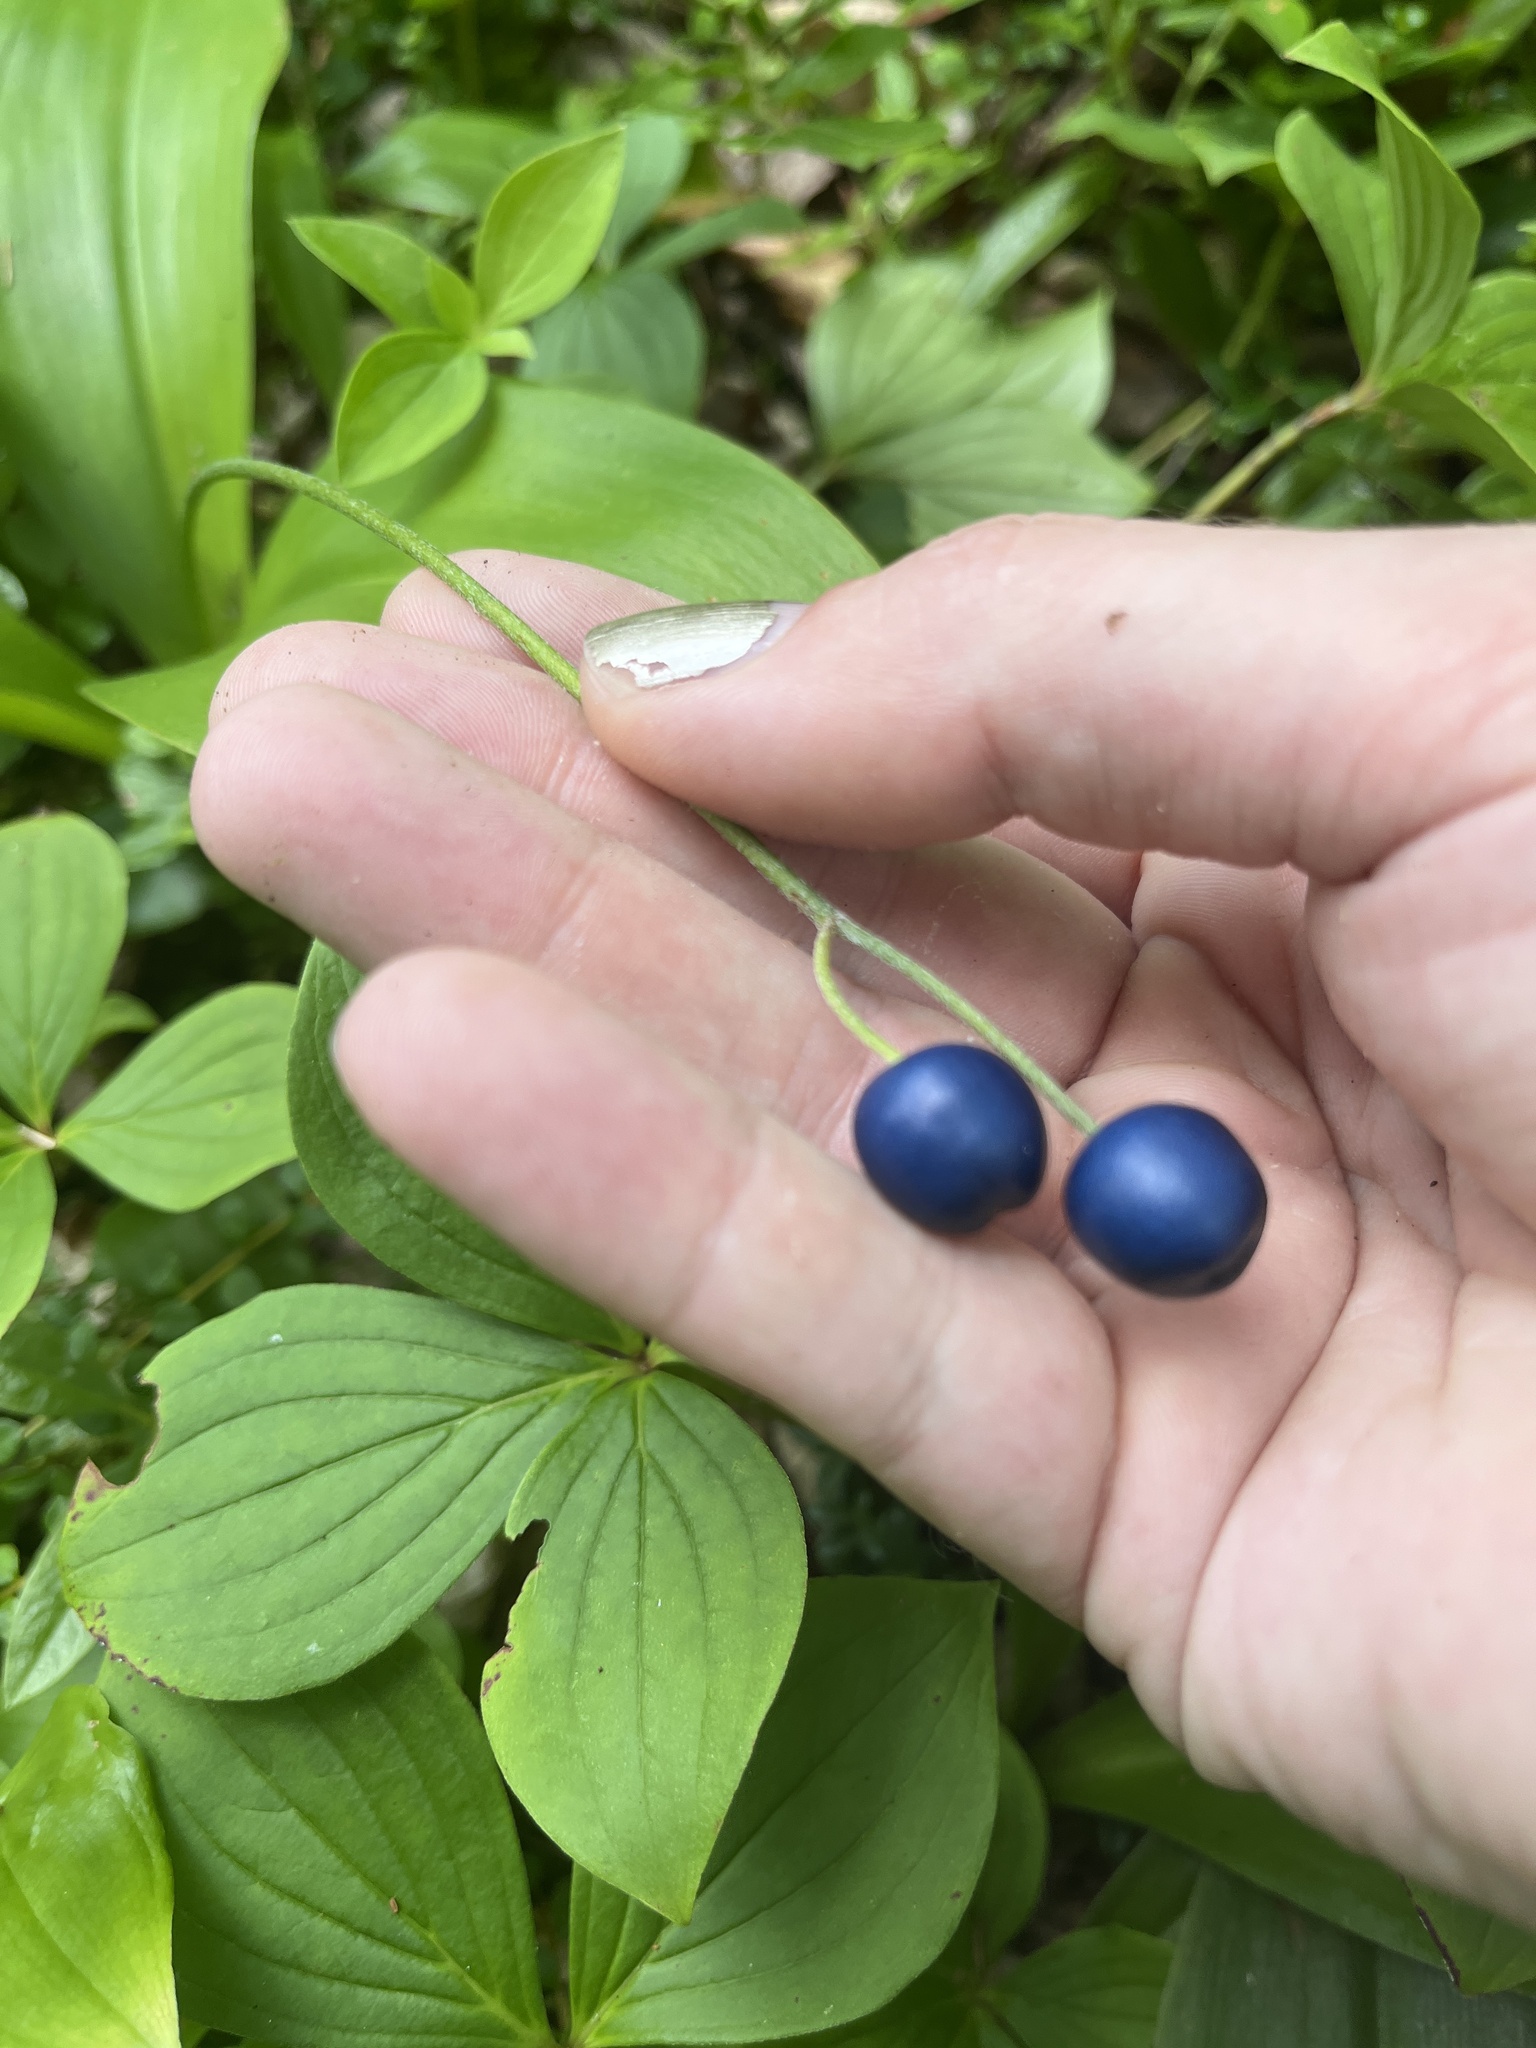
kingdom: Plantae
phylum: Tracheophyta
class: Liliopsida
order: Liliales
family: Liliaceae
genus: Clintonia
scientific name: Clintonia borealis
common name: Yellow clintonia
